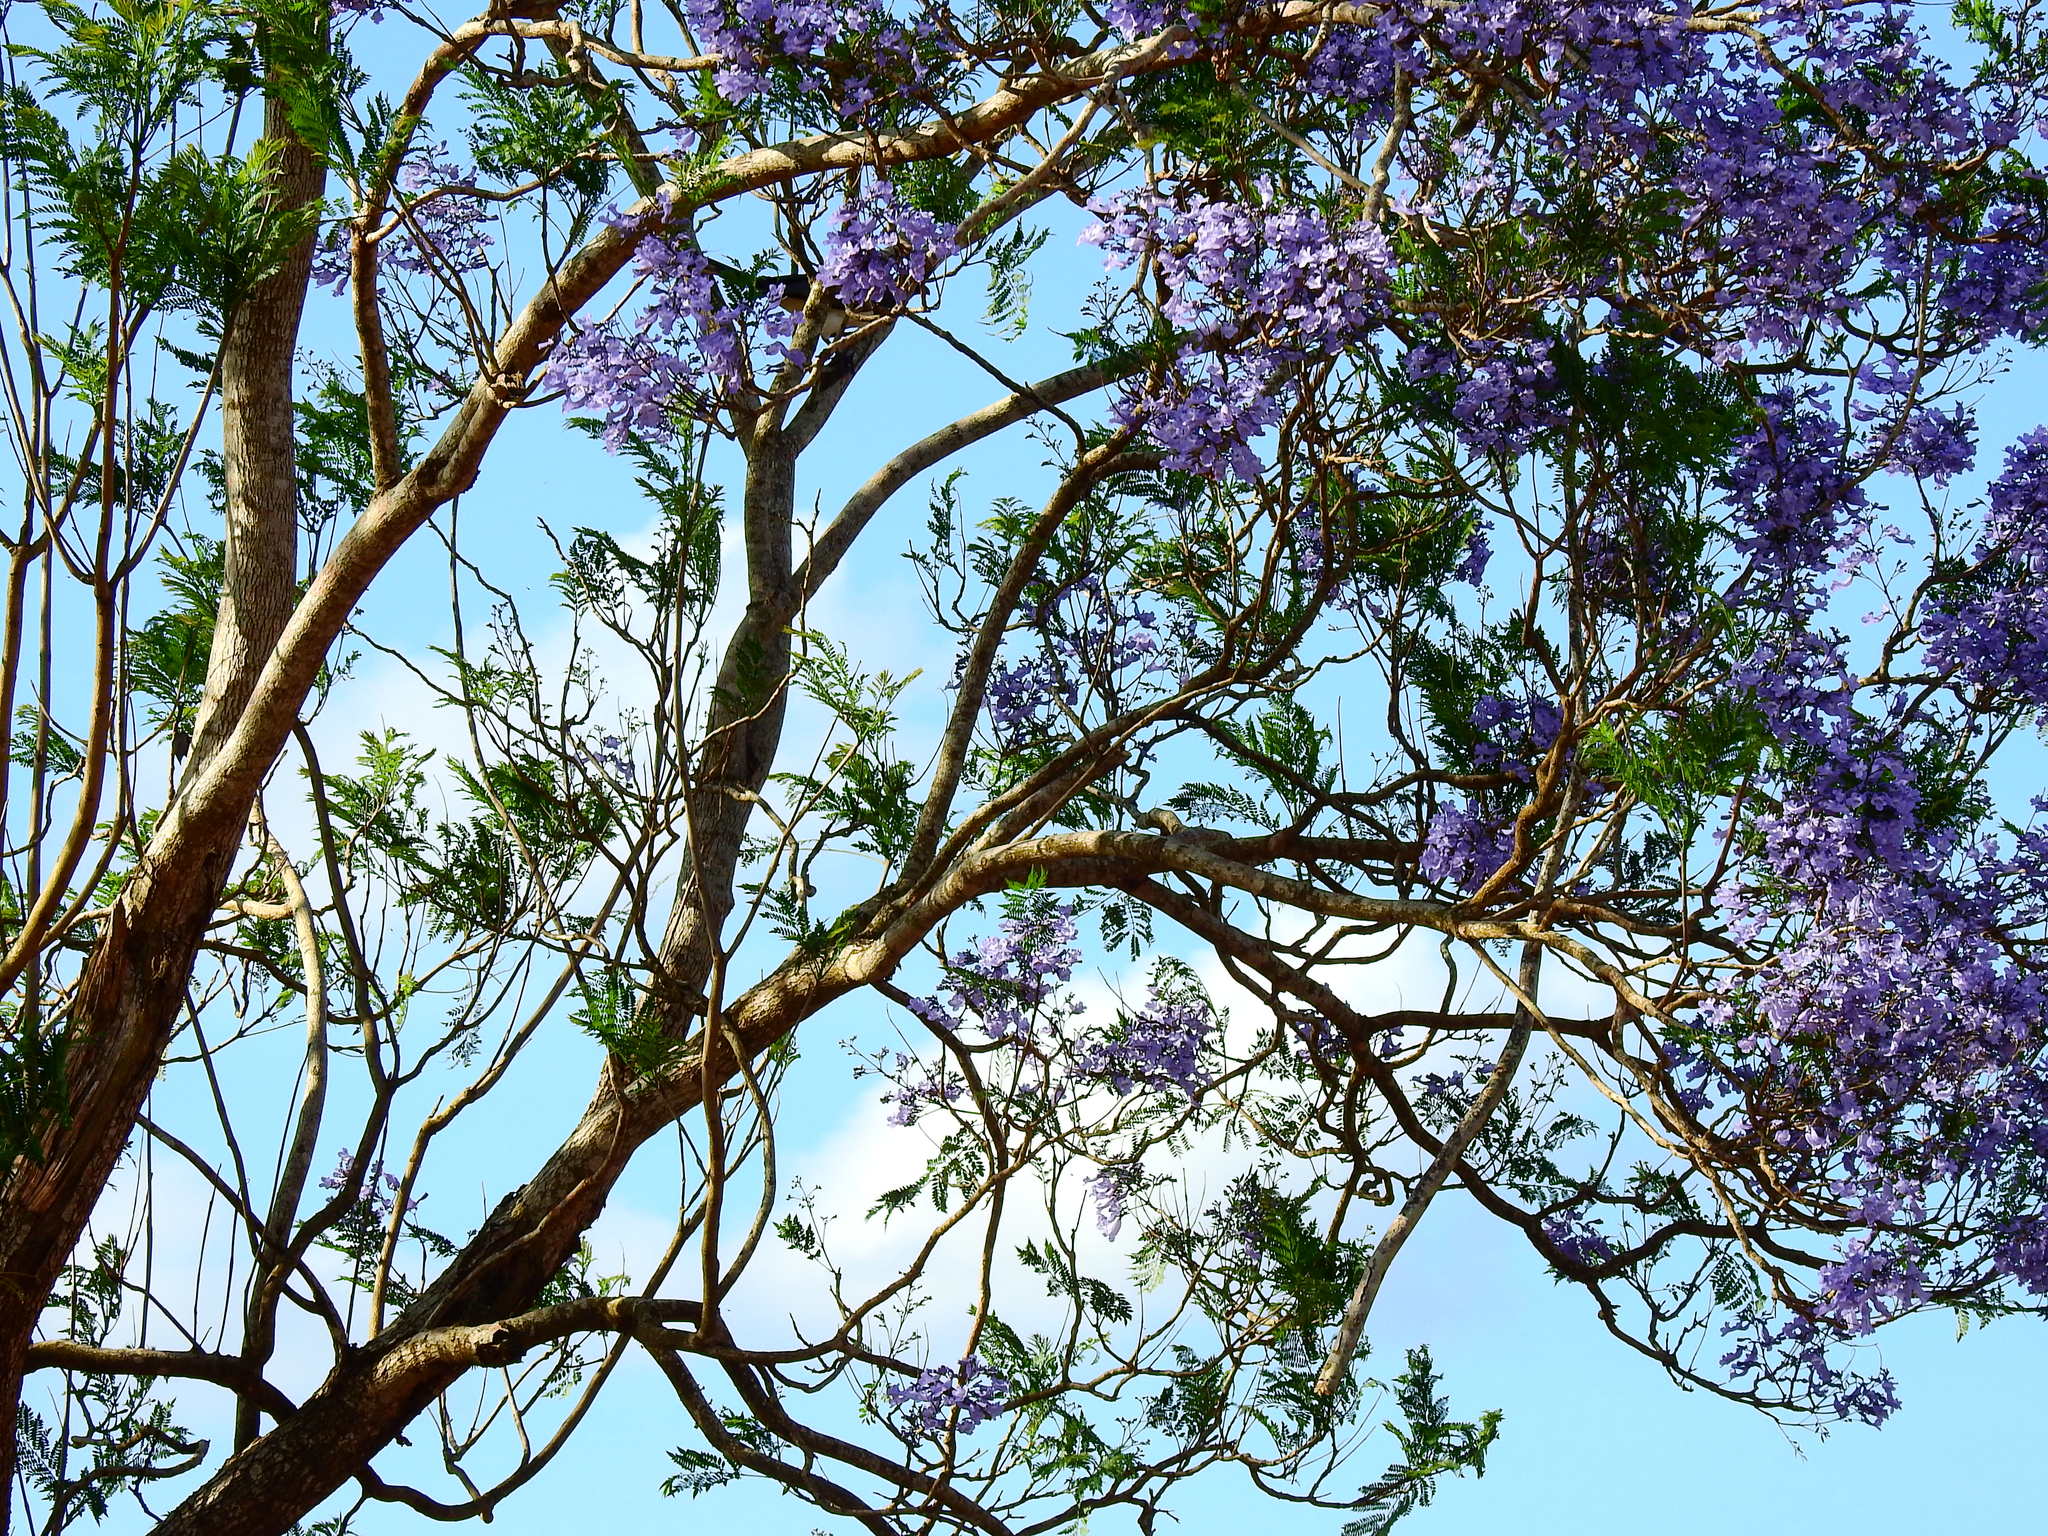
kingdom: Plantae
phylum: Tracheophyta
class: Magnoliopsida
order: Lamiales
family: Bignoniaceae
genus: Jacaranda
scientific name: Jacaranda mimosifolia
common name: Black poui
